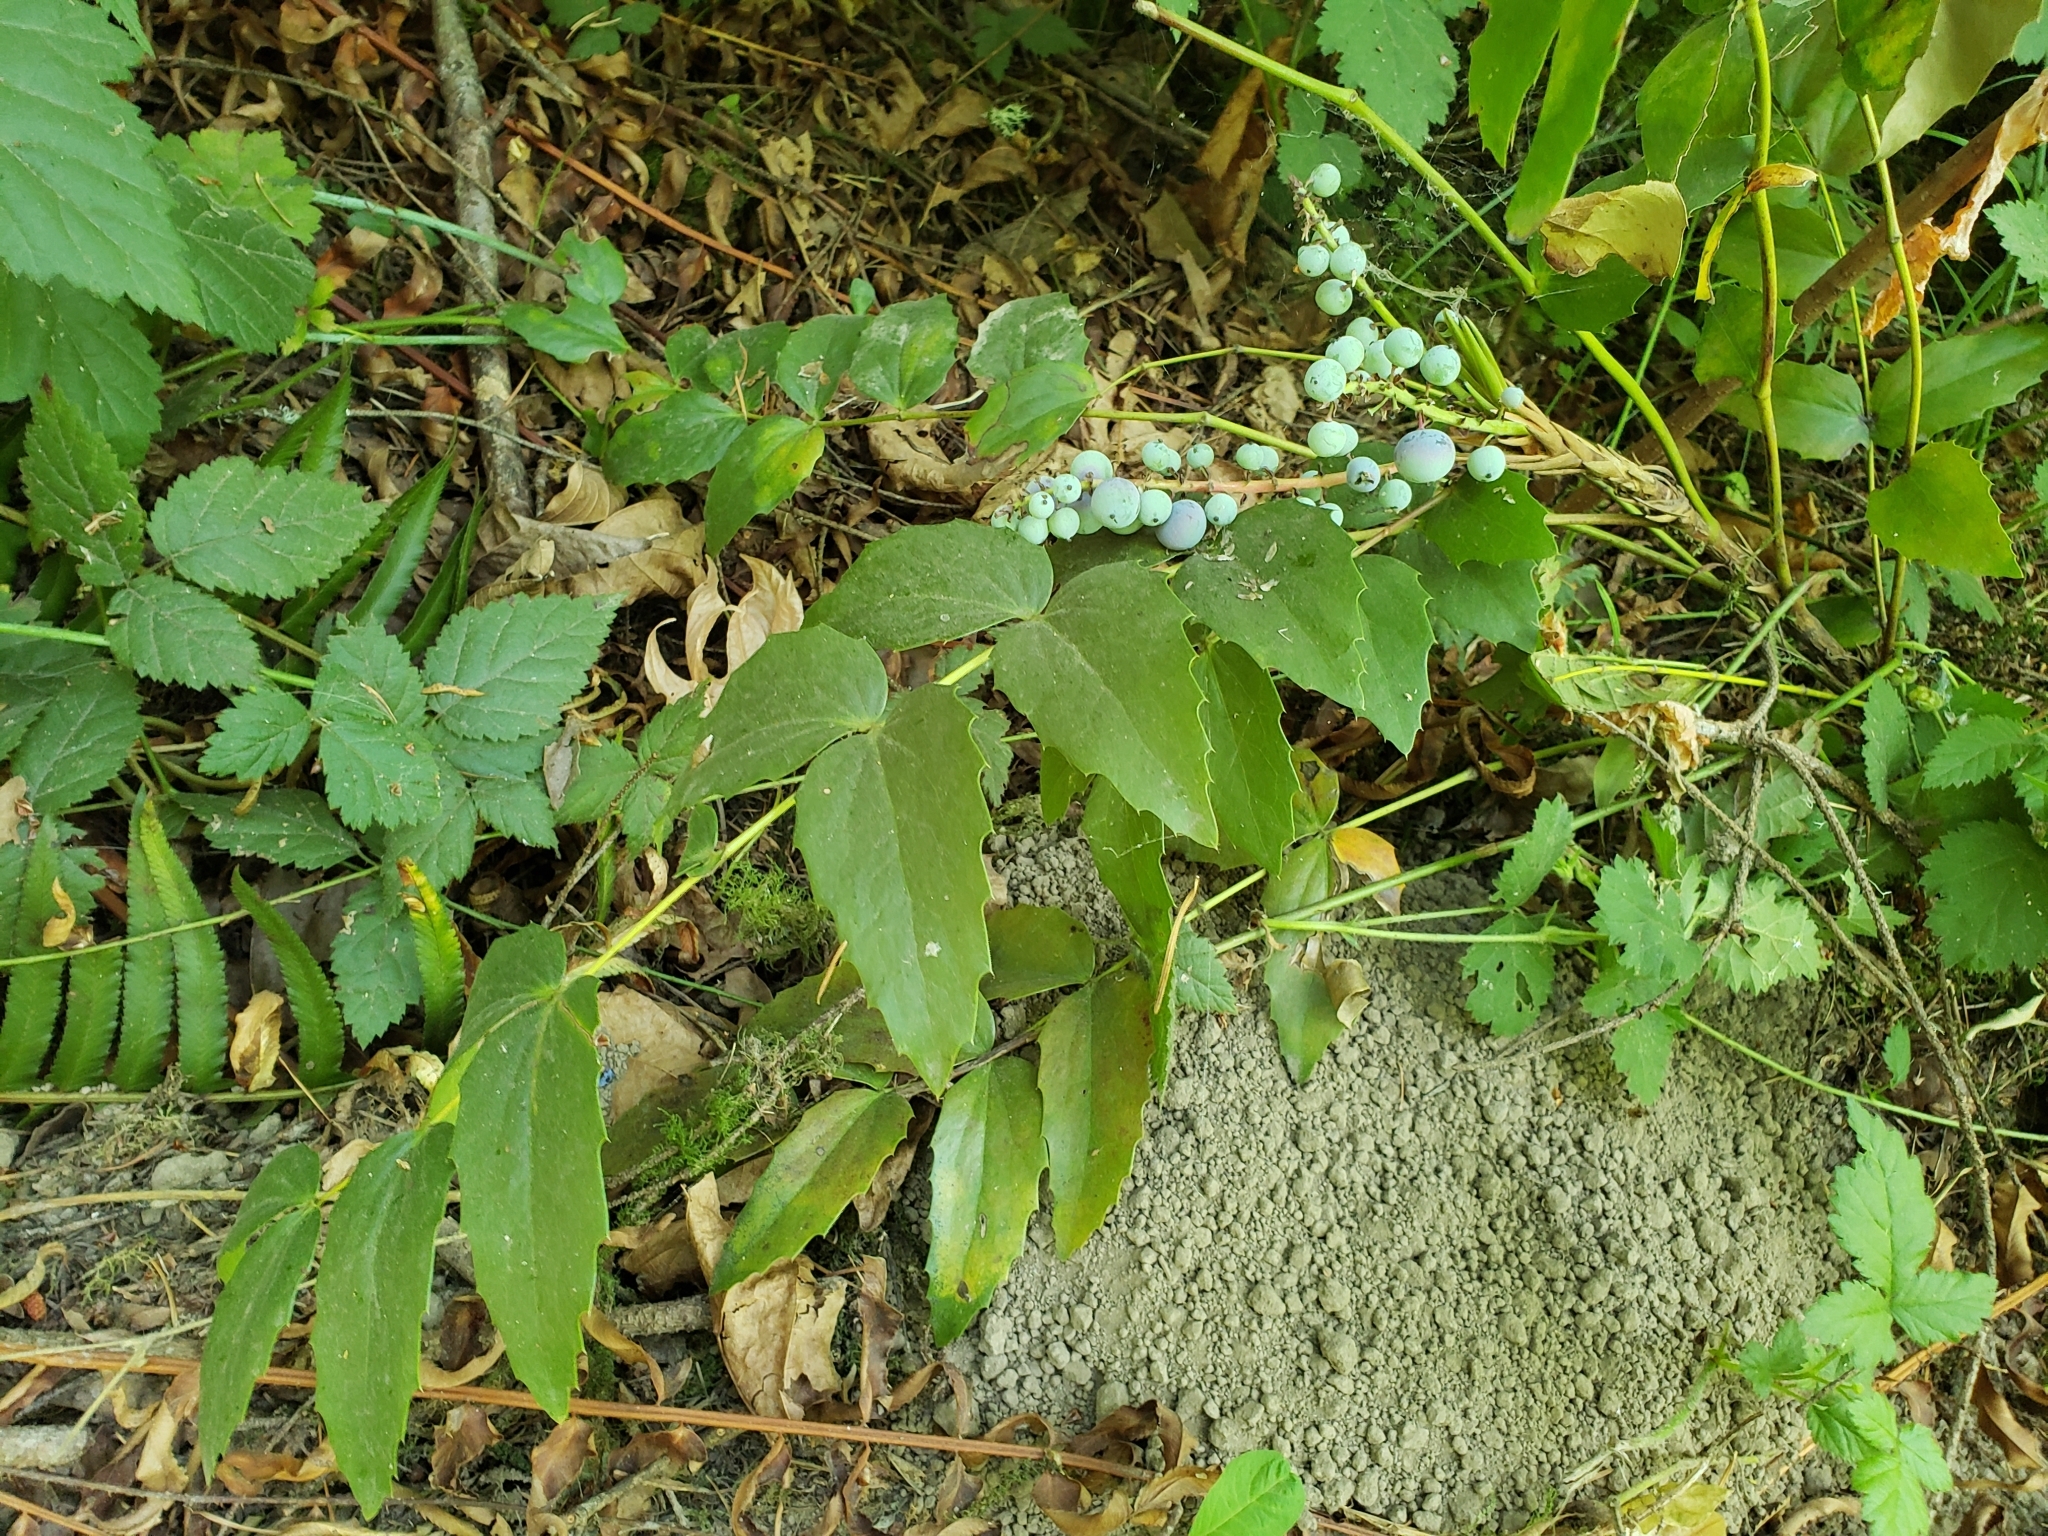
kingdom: Plantae
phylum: Tracheophyta
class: Magnoliopsida
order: Ranunculales
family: Berberidaceae
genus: Mahonia
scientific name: Mahonia nervosa
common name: Cascade oregon-grape
